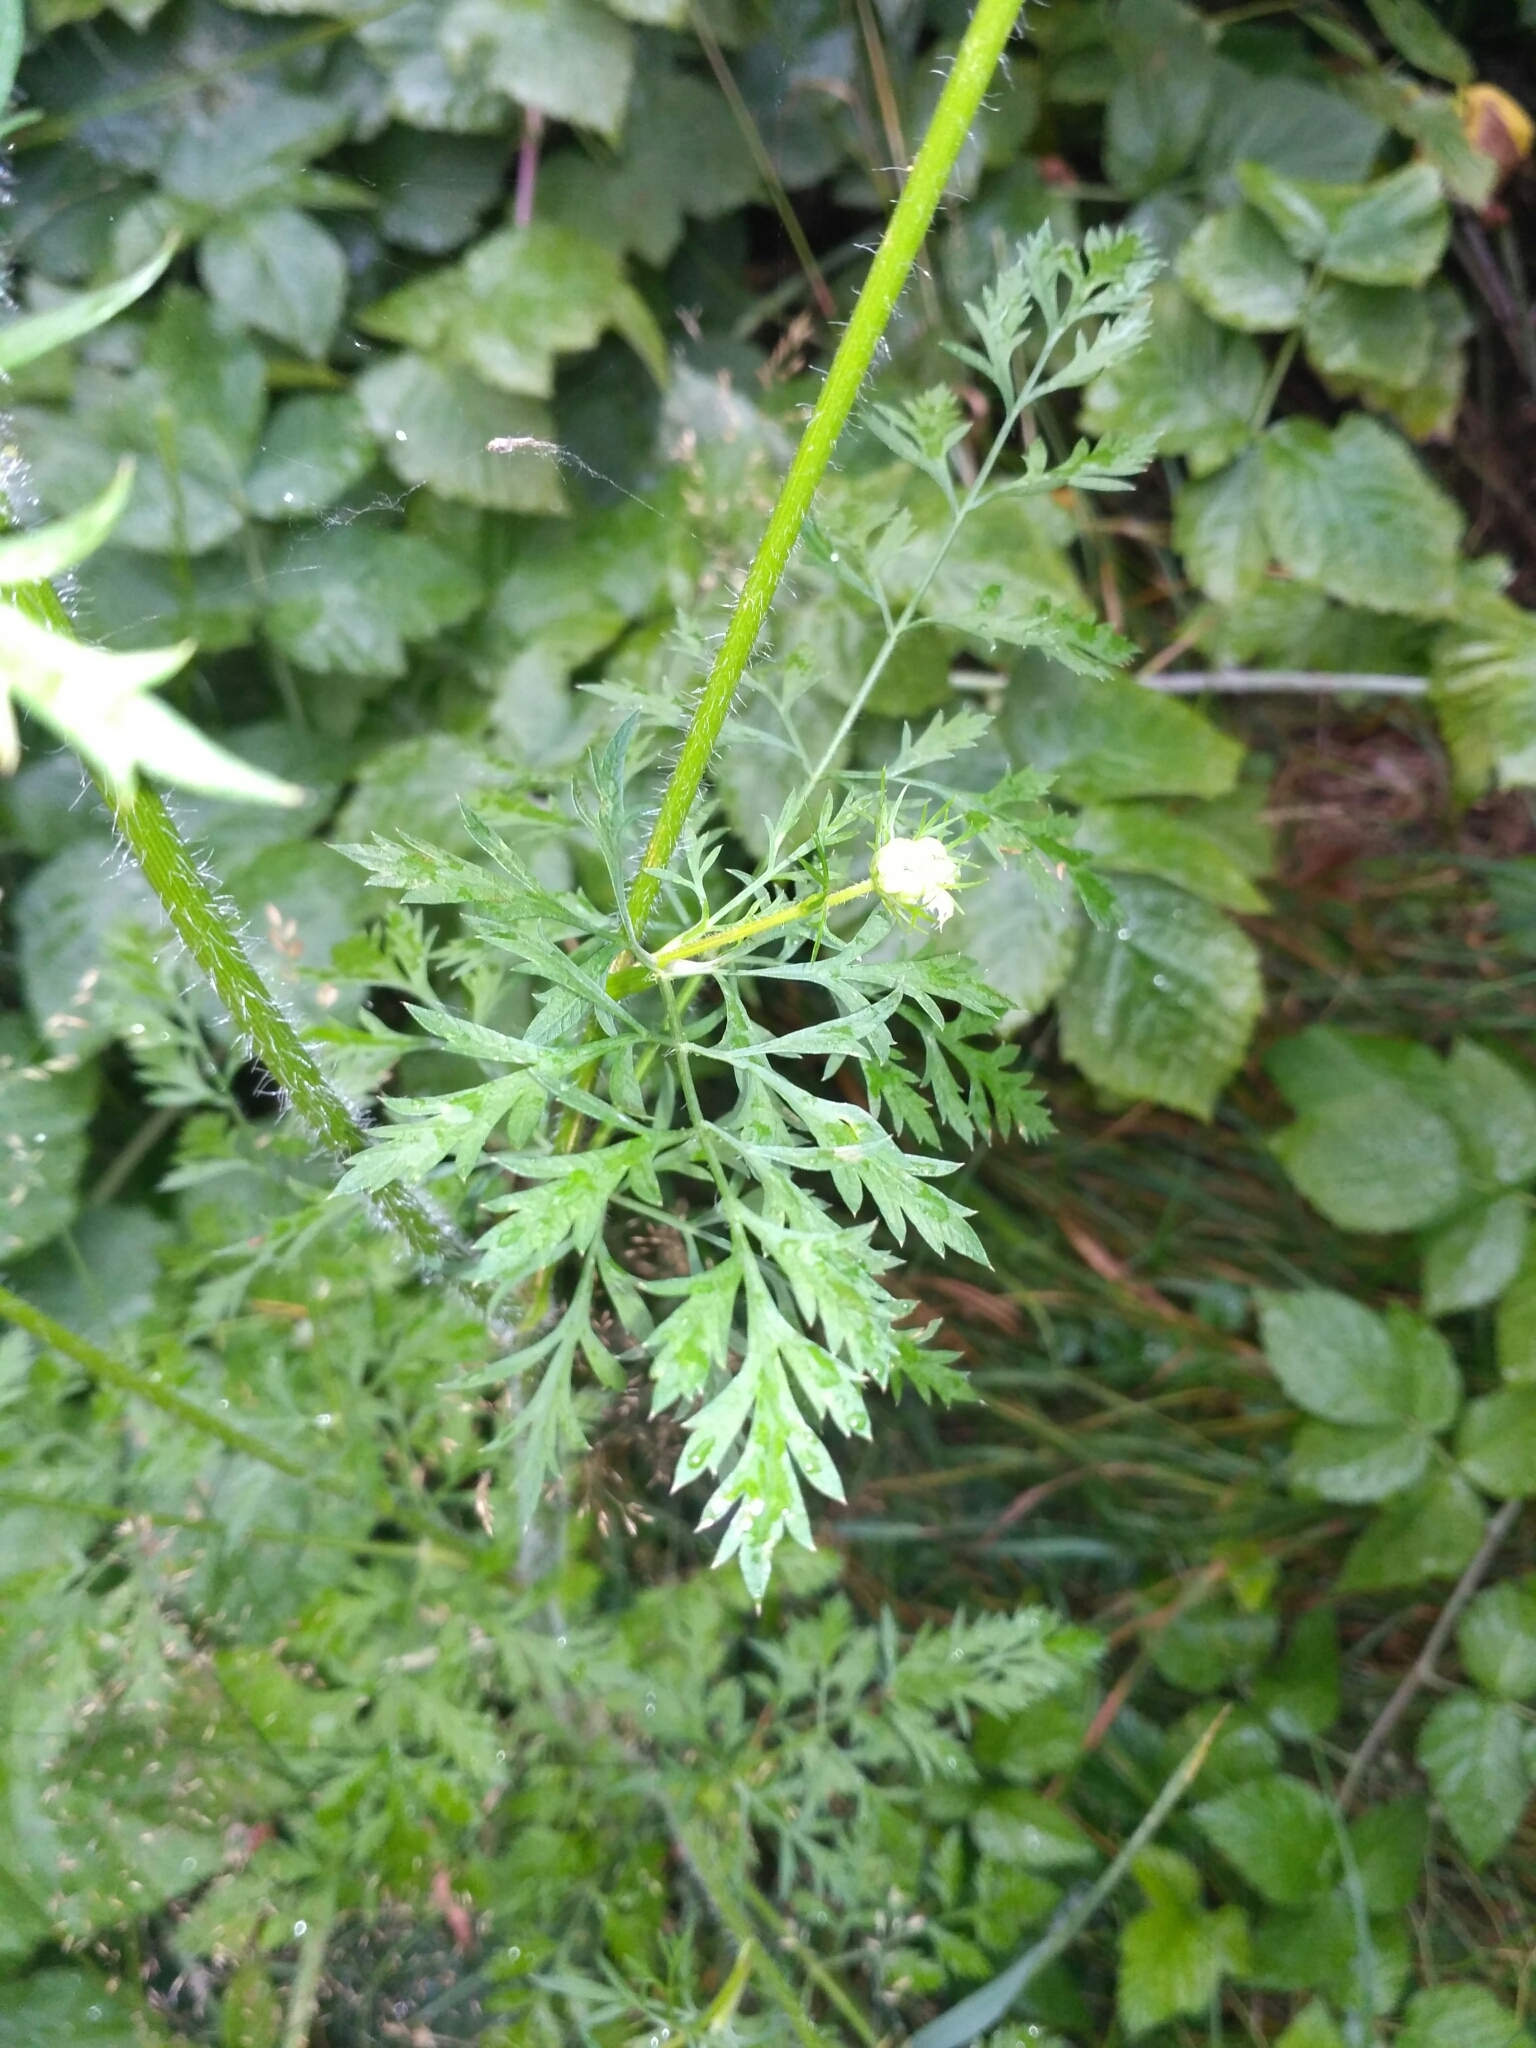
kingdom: Plantae
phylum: Tracheophyta
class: Magnoliopsida
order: Apiales
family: Apiaceae
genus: Daucus
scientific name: Daucus carota
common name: Wild carrot
